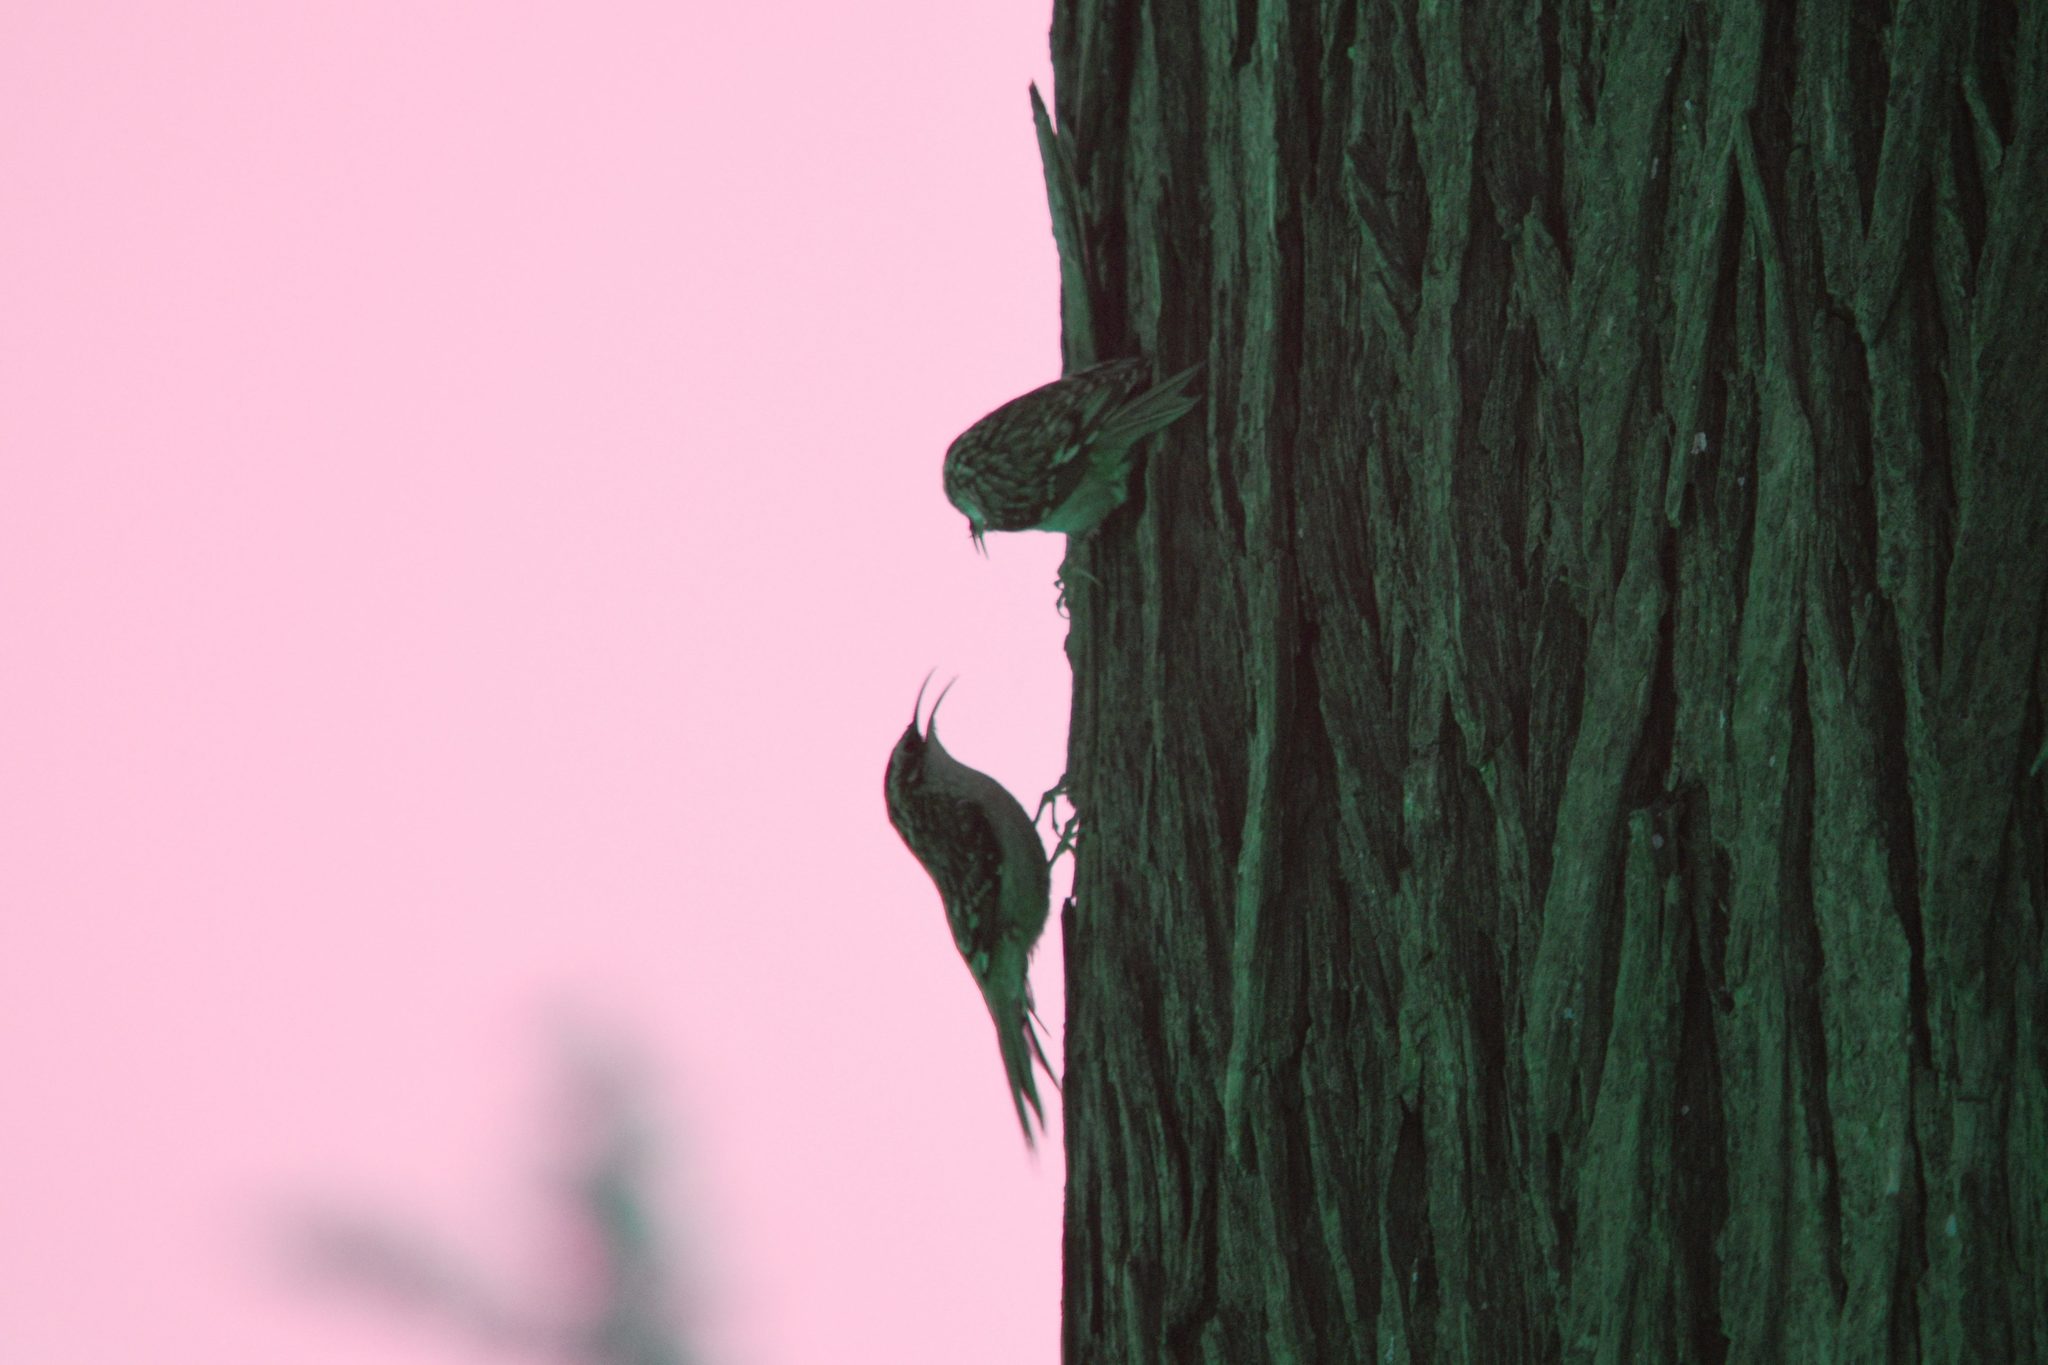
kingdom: Animalia
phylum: Chordata
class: Aves
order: Passeriformes
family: Certhiidae
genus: Certhia
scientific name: Certhia americana
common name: Brown creeper
